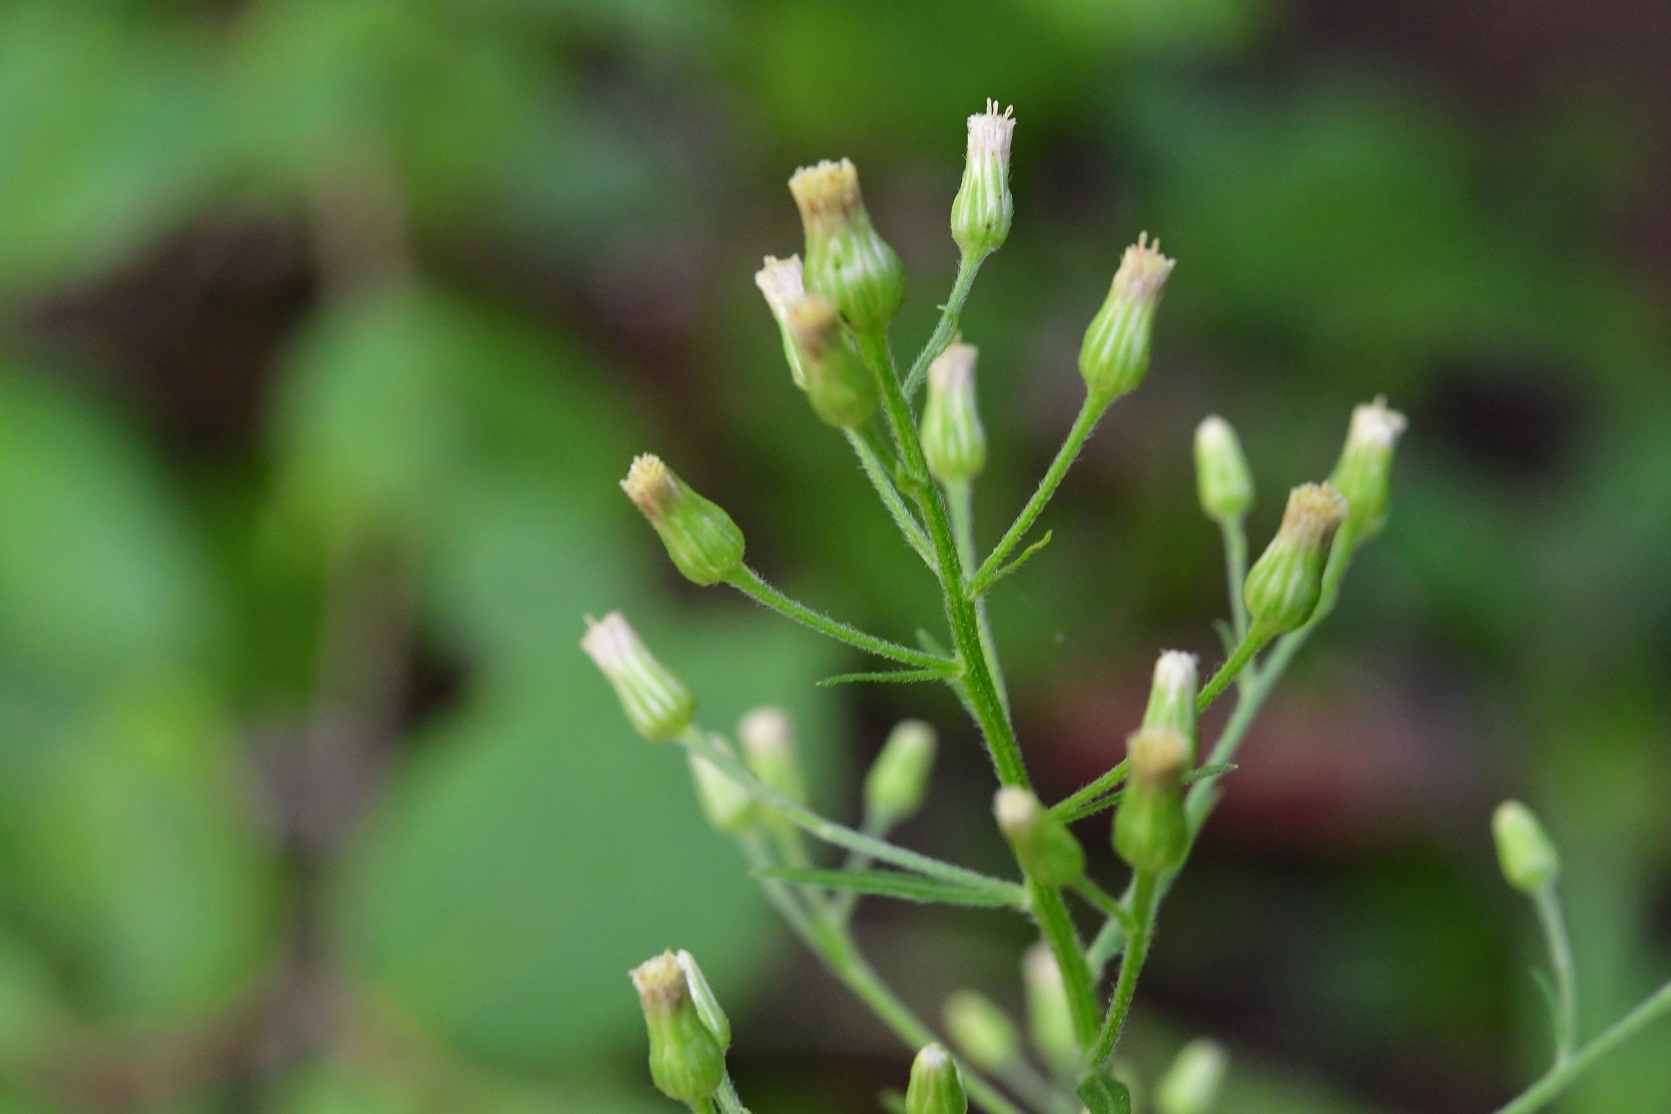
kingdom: Plantae
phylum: Tracheophyta
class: Magnoliopsida
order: Asterales
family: Asteraceae
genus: Erigeron
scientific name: Erigeron canadensis
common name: Canadian fleabane
